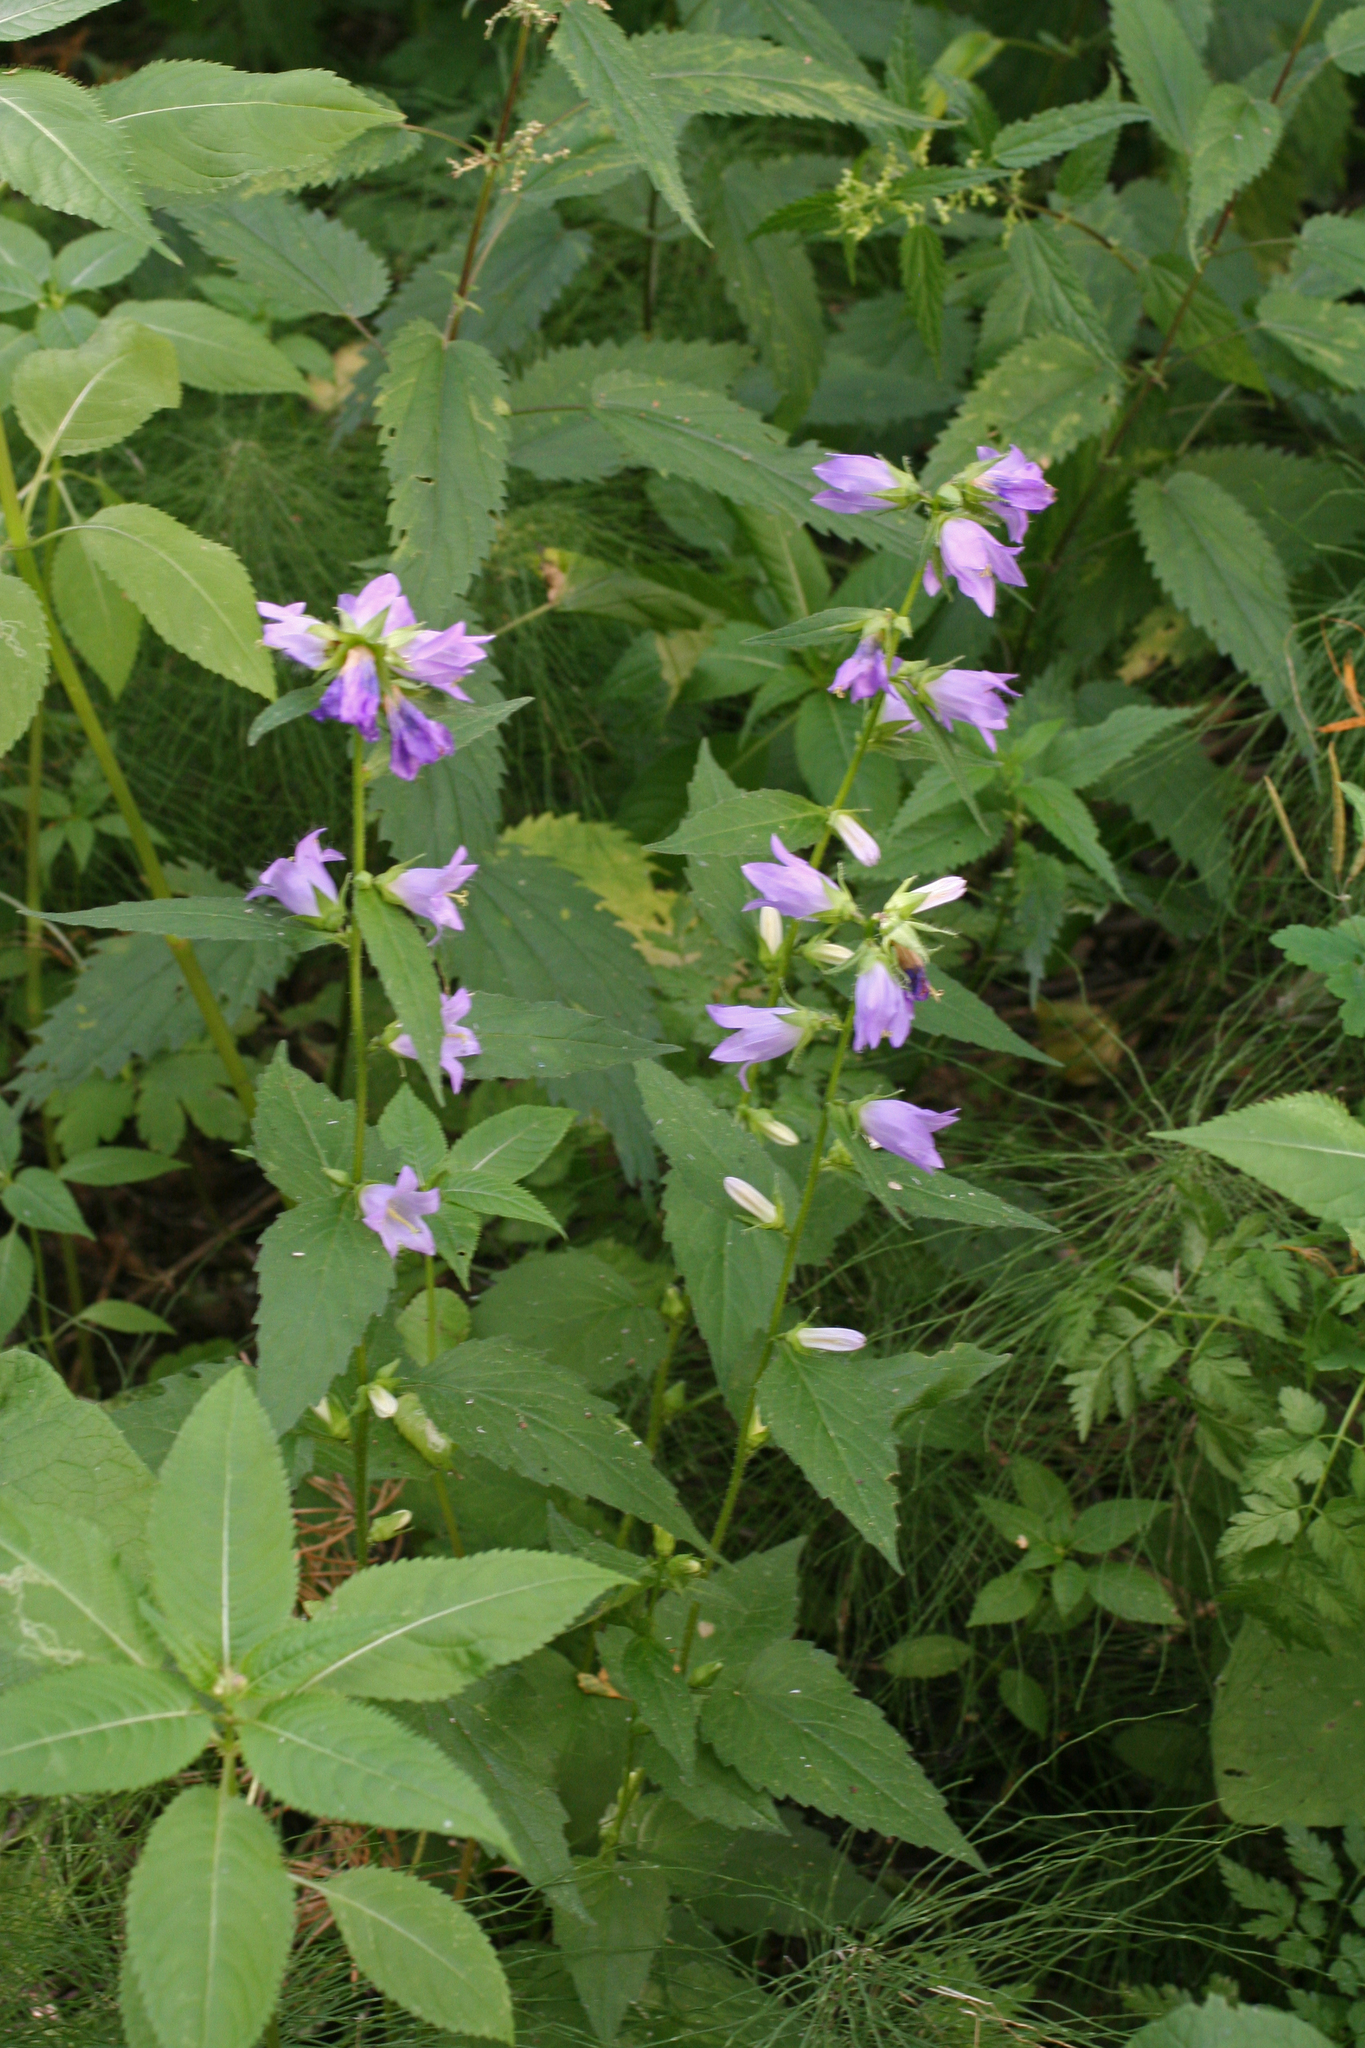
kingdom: Plantae
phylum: Tracheophyta
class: Magnoliopsida
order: Asterales
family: Campanulaceae
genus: Campanula
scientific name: Campanula trachelium
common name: Nettle-leaved bellflower
